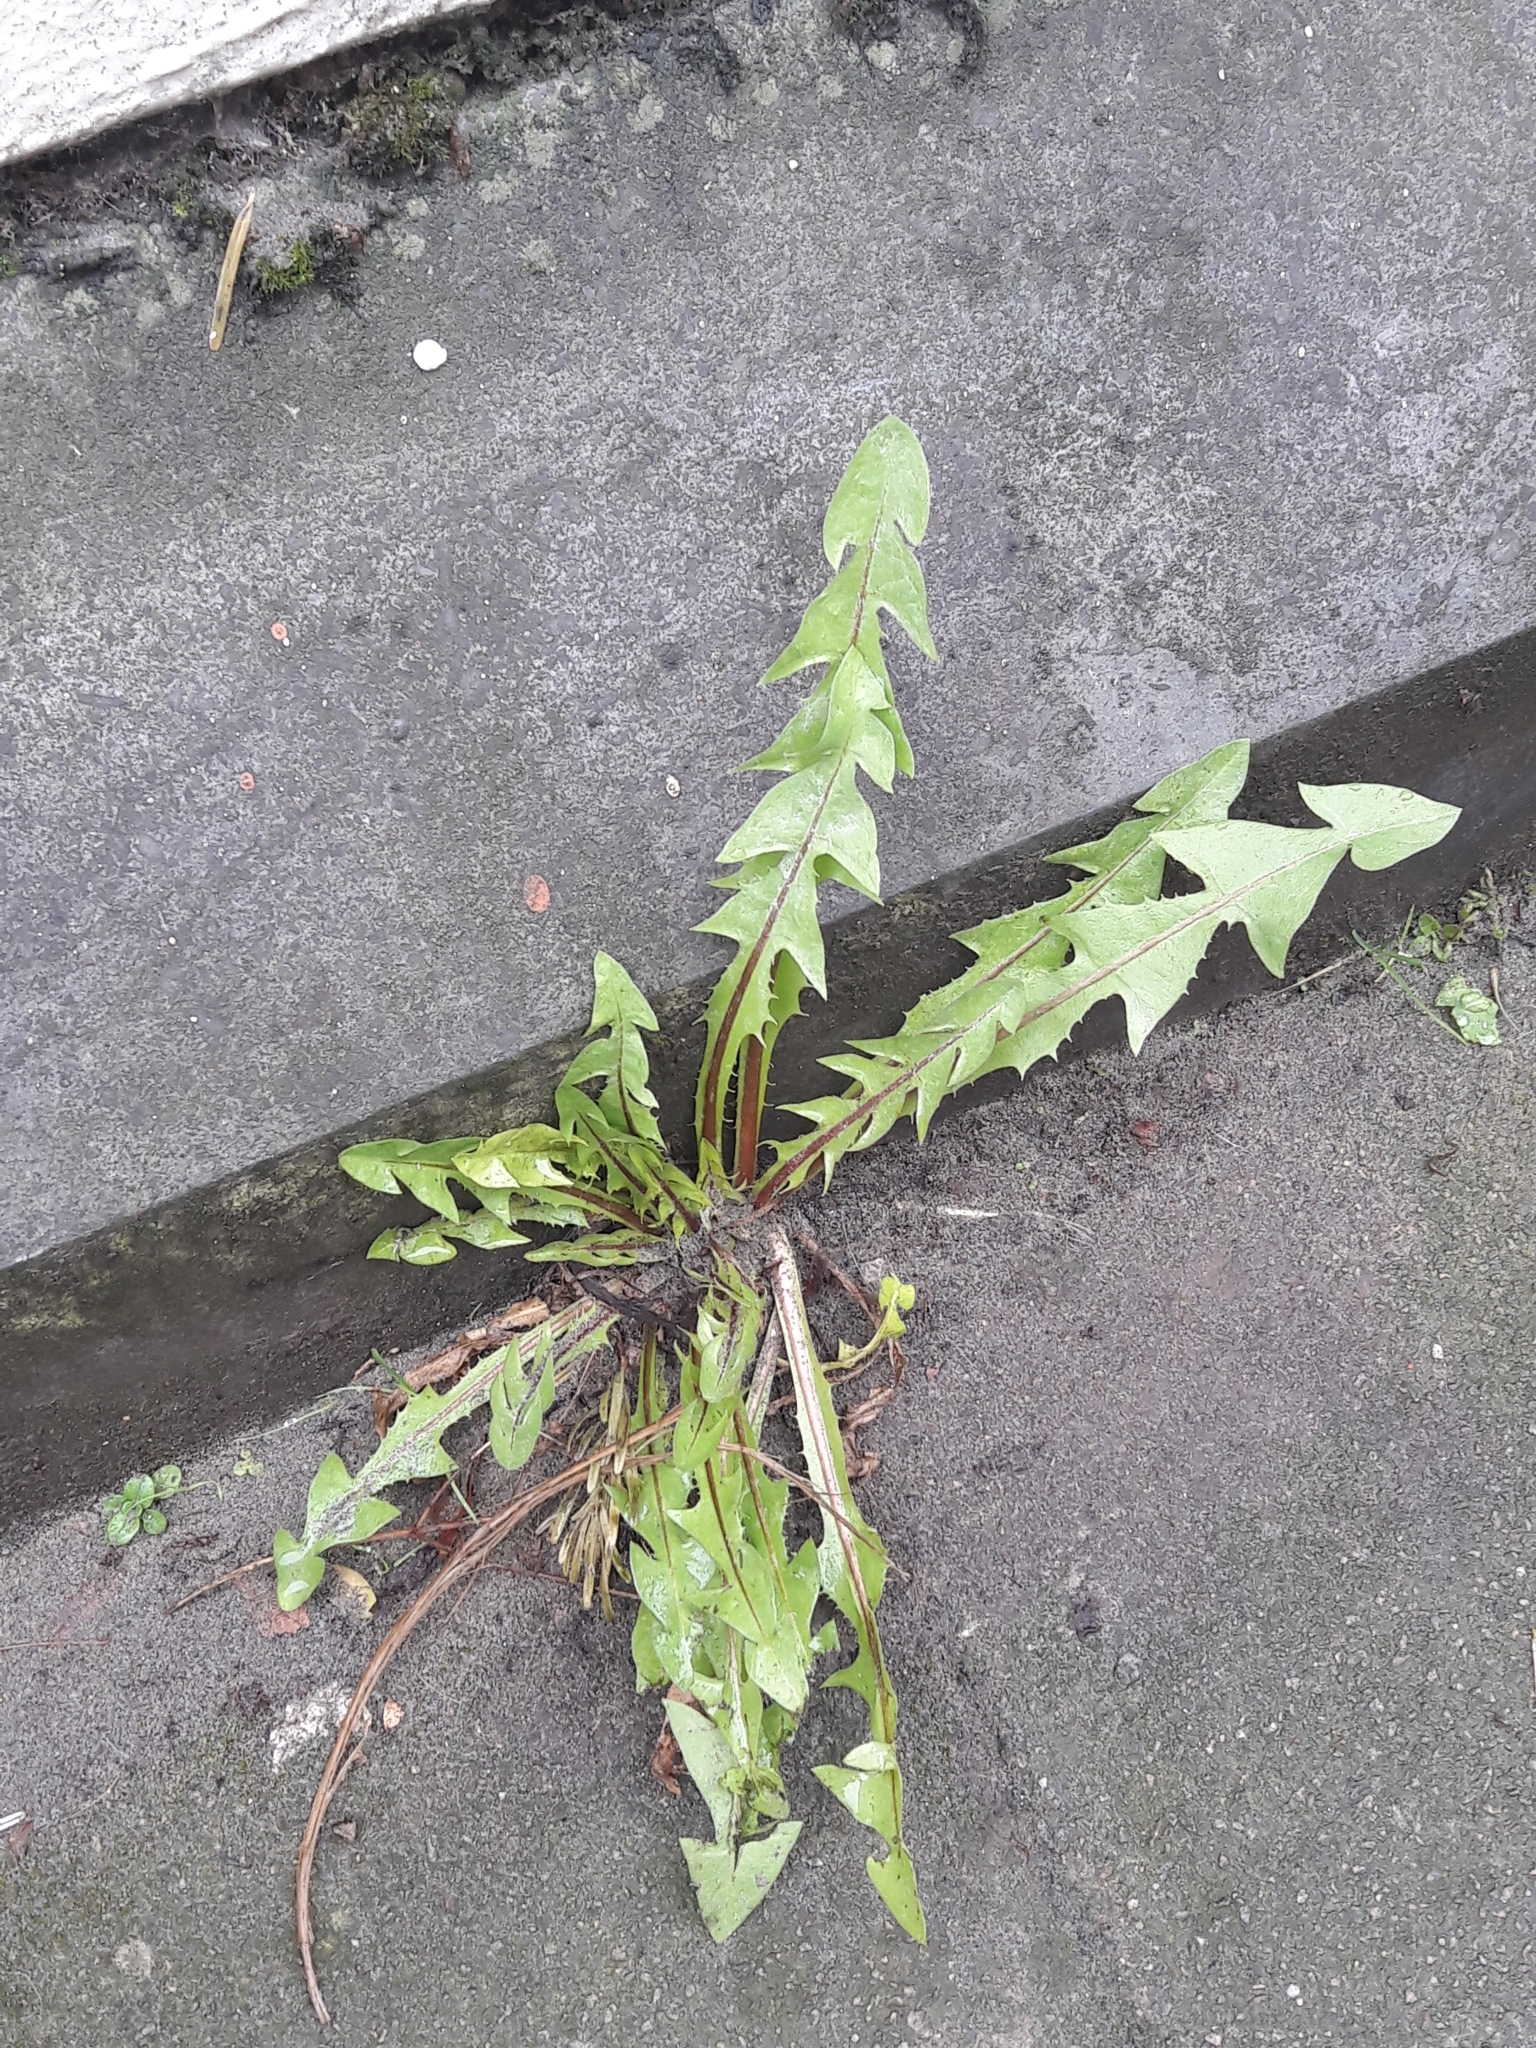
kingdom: Plantae
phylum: Tracheophyta
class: Magnoliopsida
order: Asterales
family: Asteraceae
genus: Taraxacum
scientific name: Taraxacum officinale
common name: Common dandelion
